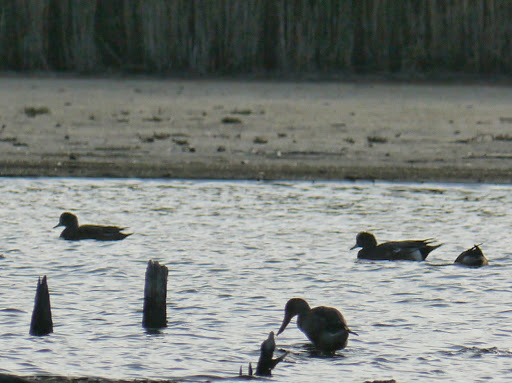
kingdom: Animalia
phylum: Chordata
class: Aves
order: Anseriformes
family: Anatidae
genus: Mareca
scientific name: Mareca americana
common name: American wigeon
